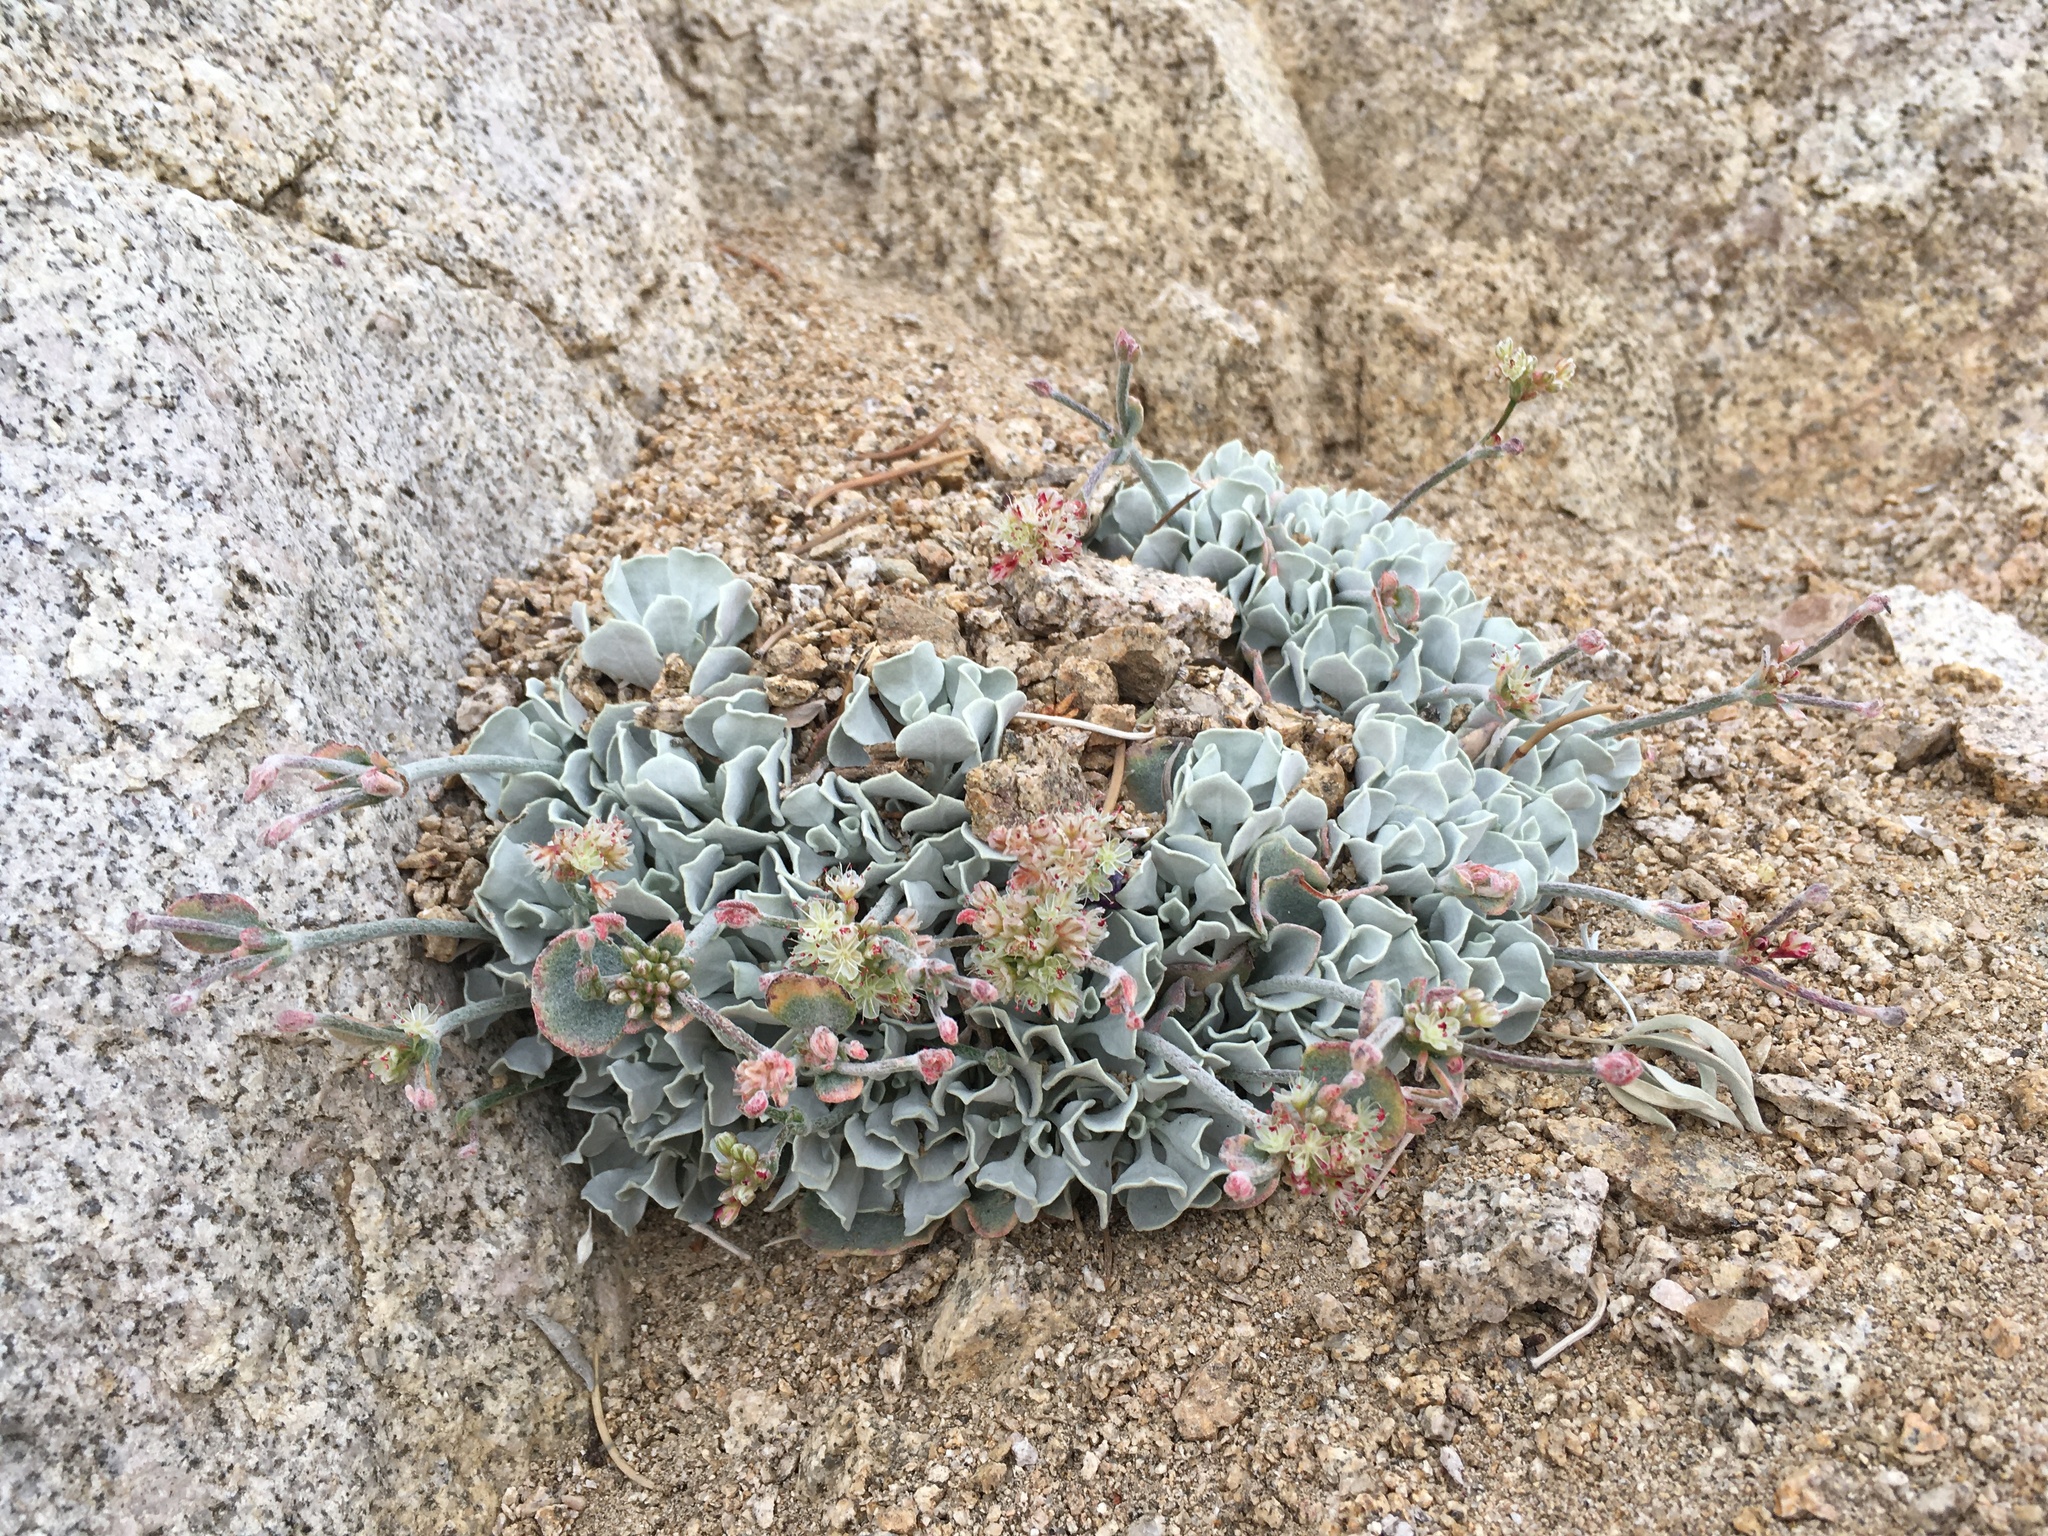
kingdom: Plantae
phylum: Tracheophyta
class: Magnoliopsida
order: Caryophyllales
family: Polygonaceae
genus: Eriogonum
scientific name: Eriogonum saxatile
